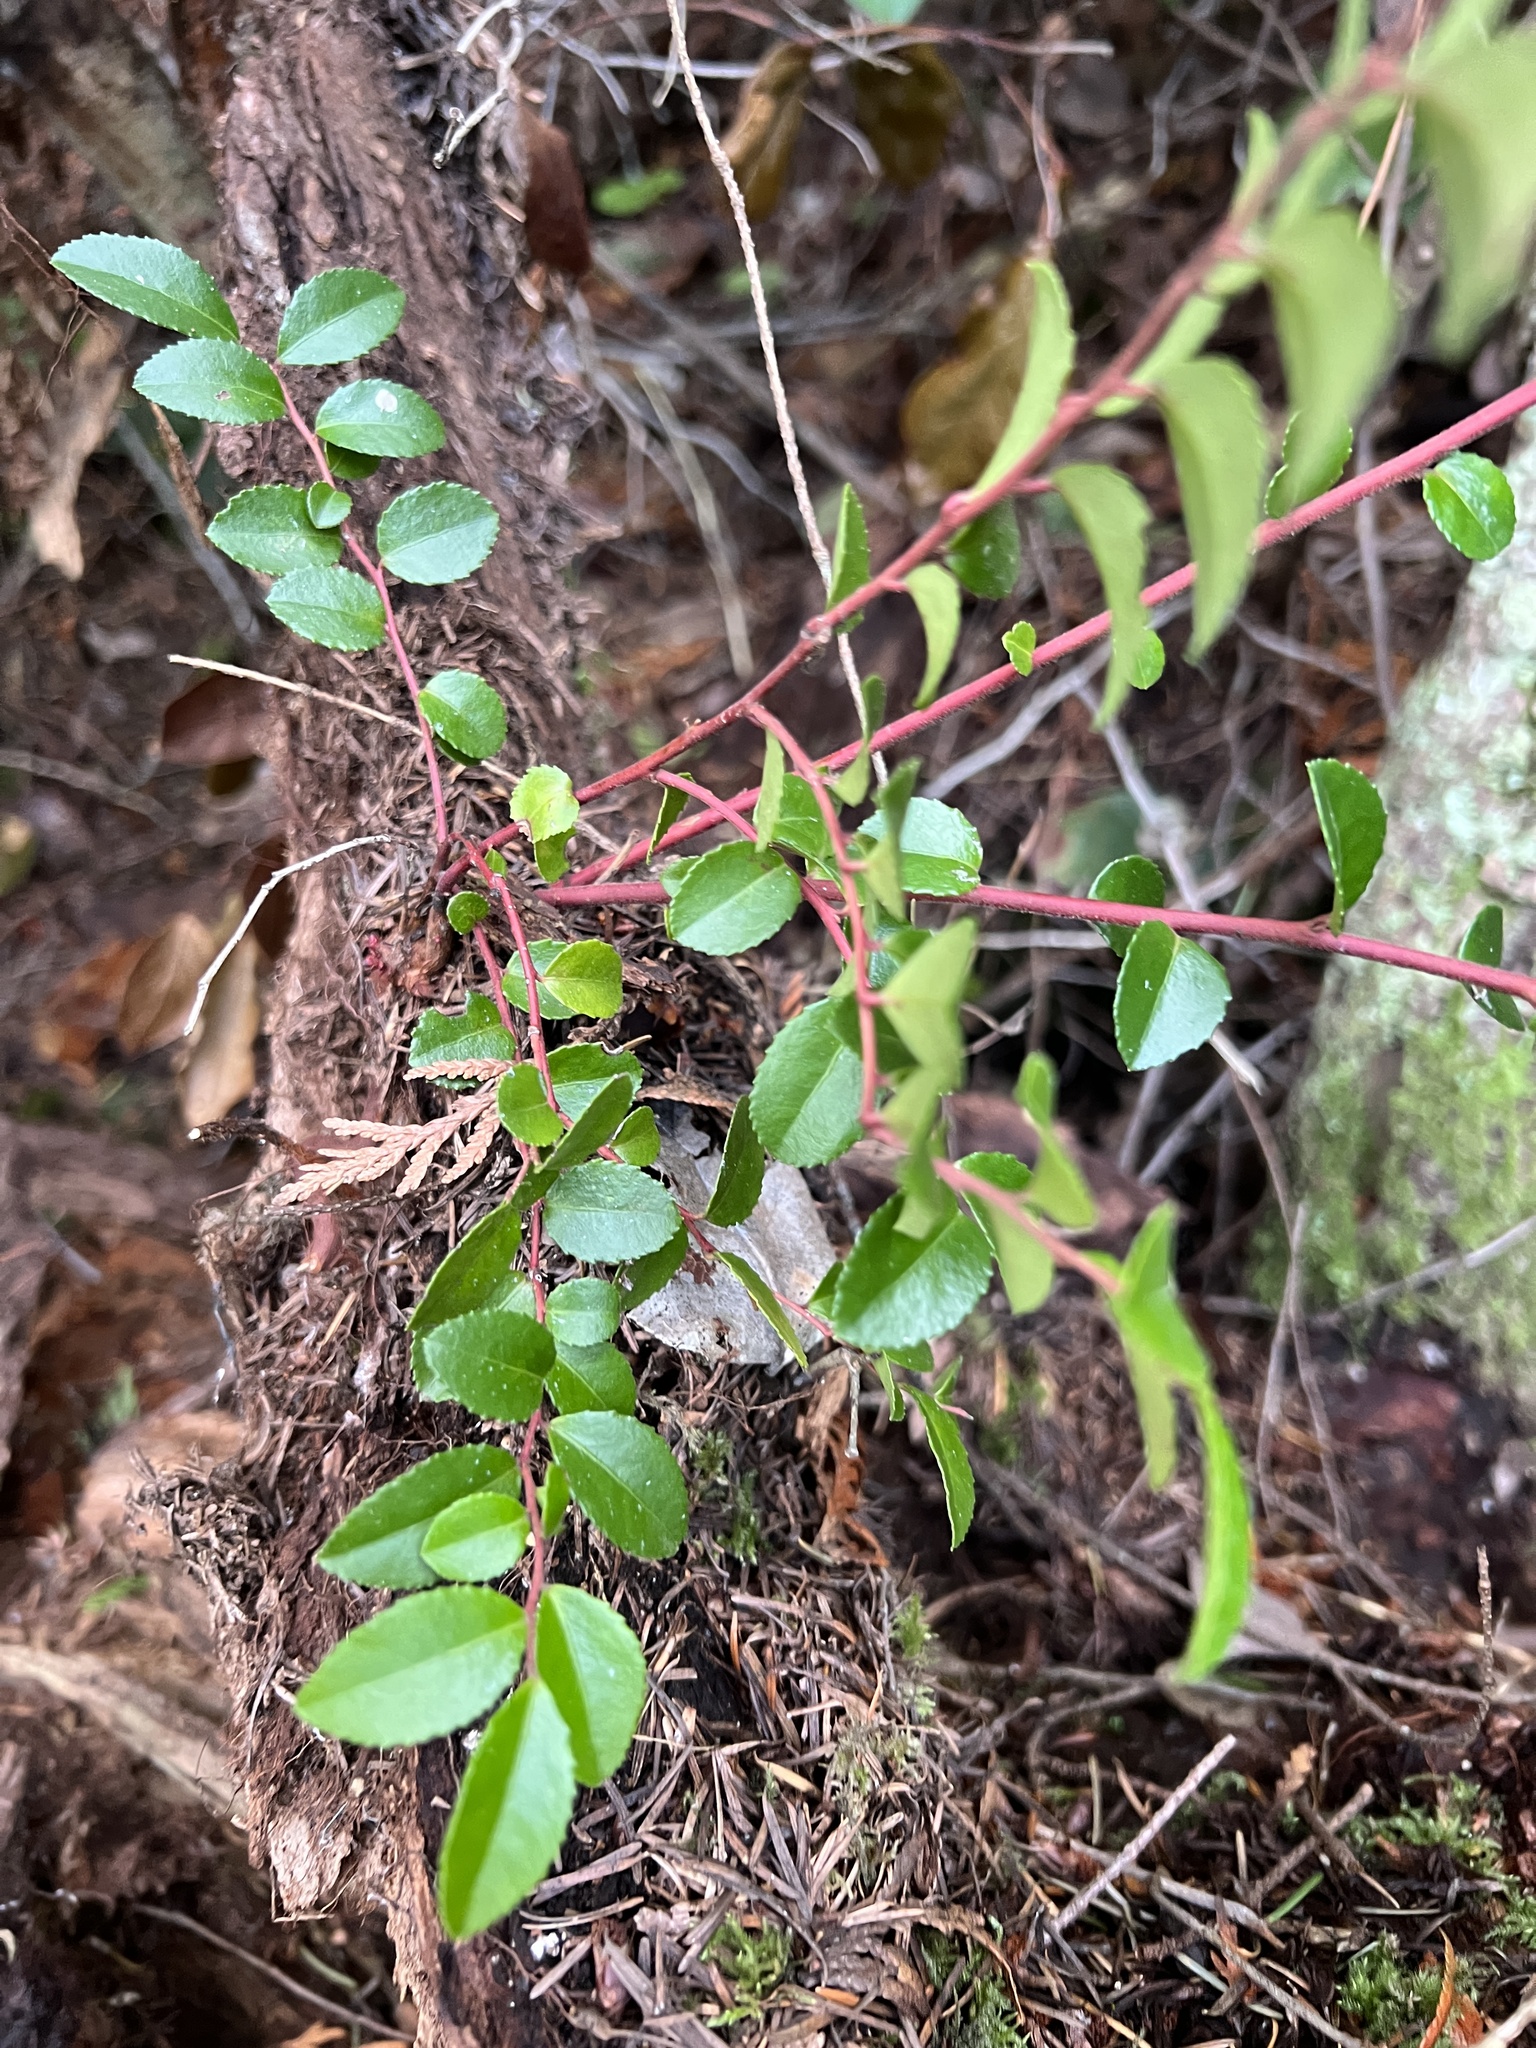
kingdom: Plantae
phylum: Tracheophyta
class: Magnoliopsida
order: Ericales
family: Ericaceae
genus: Vaccinium
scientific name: Vaccinium ovatum
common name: California-huckleberry
